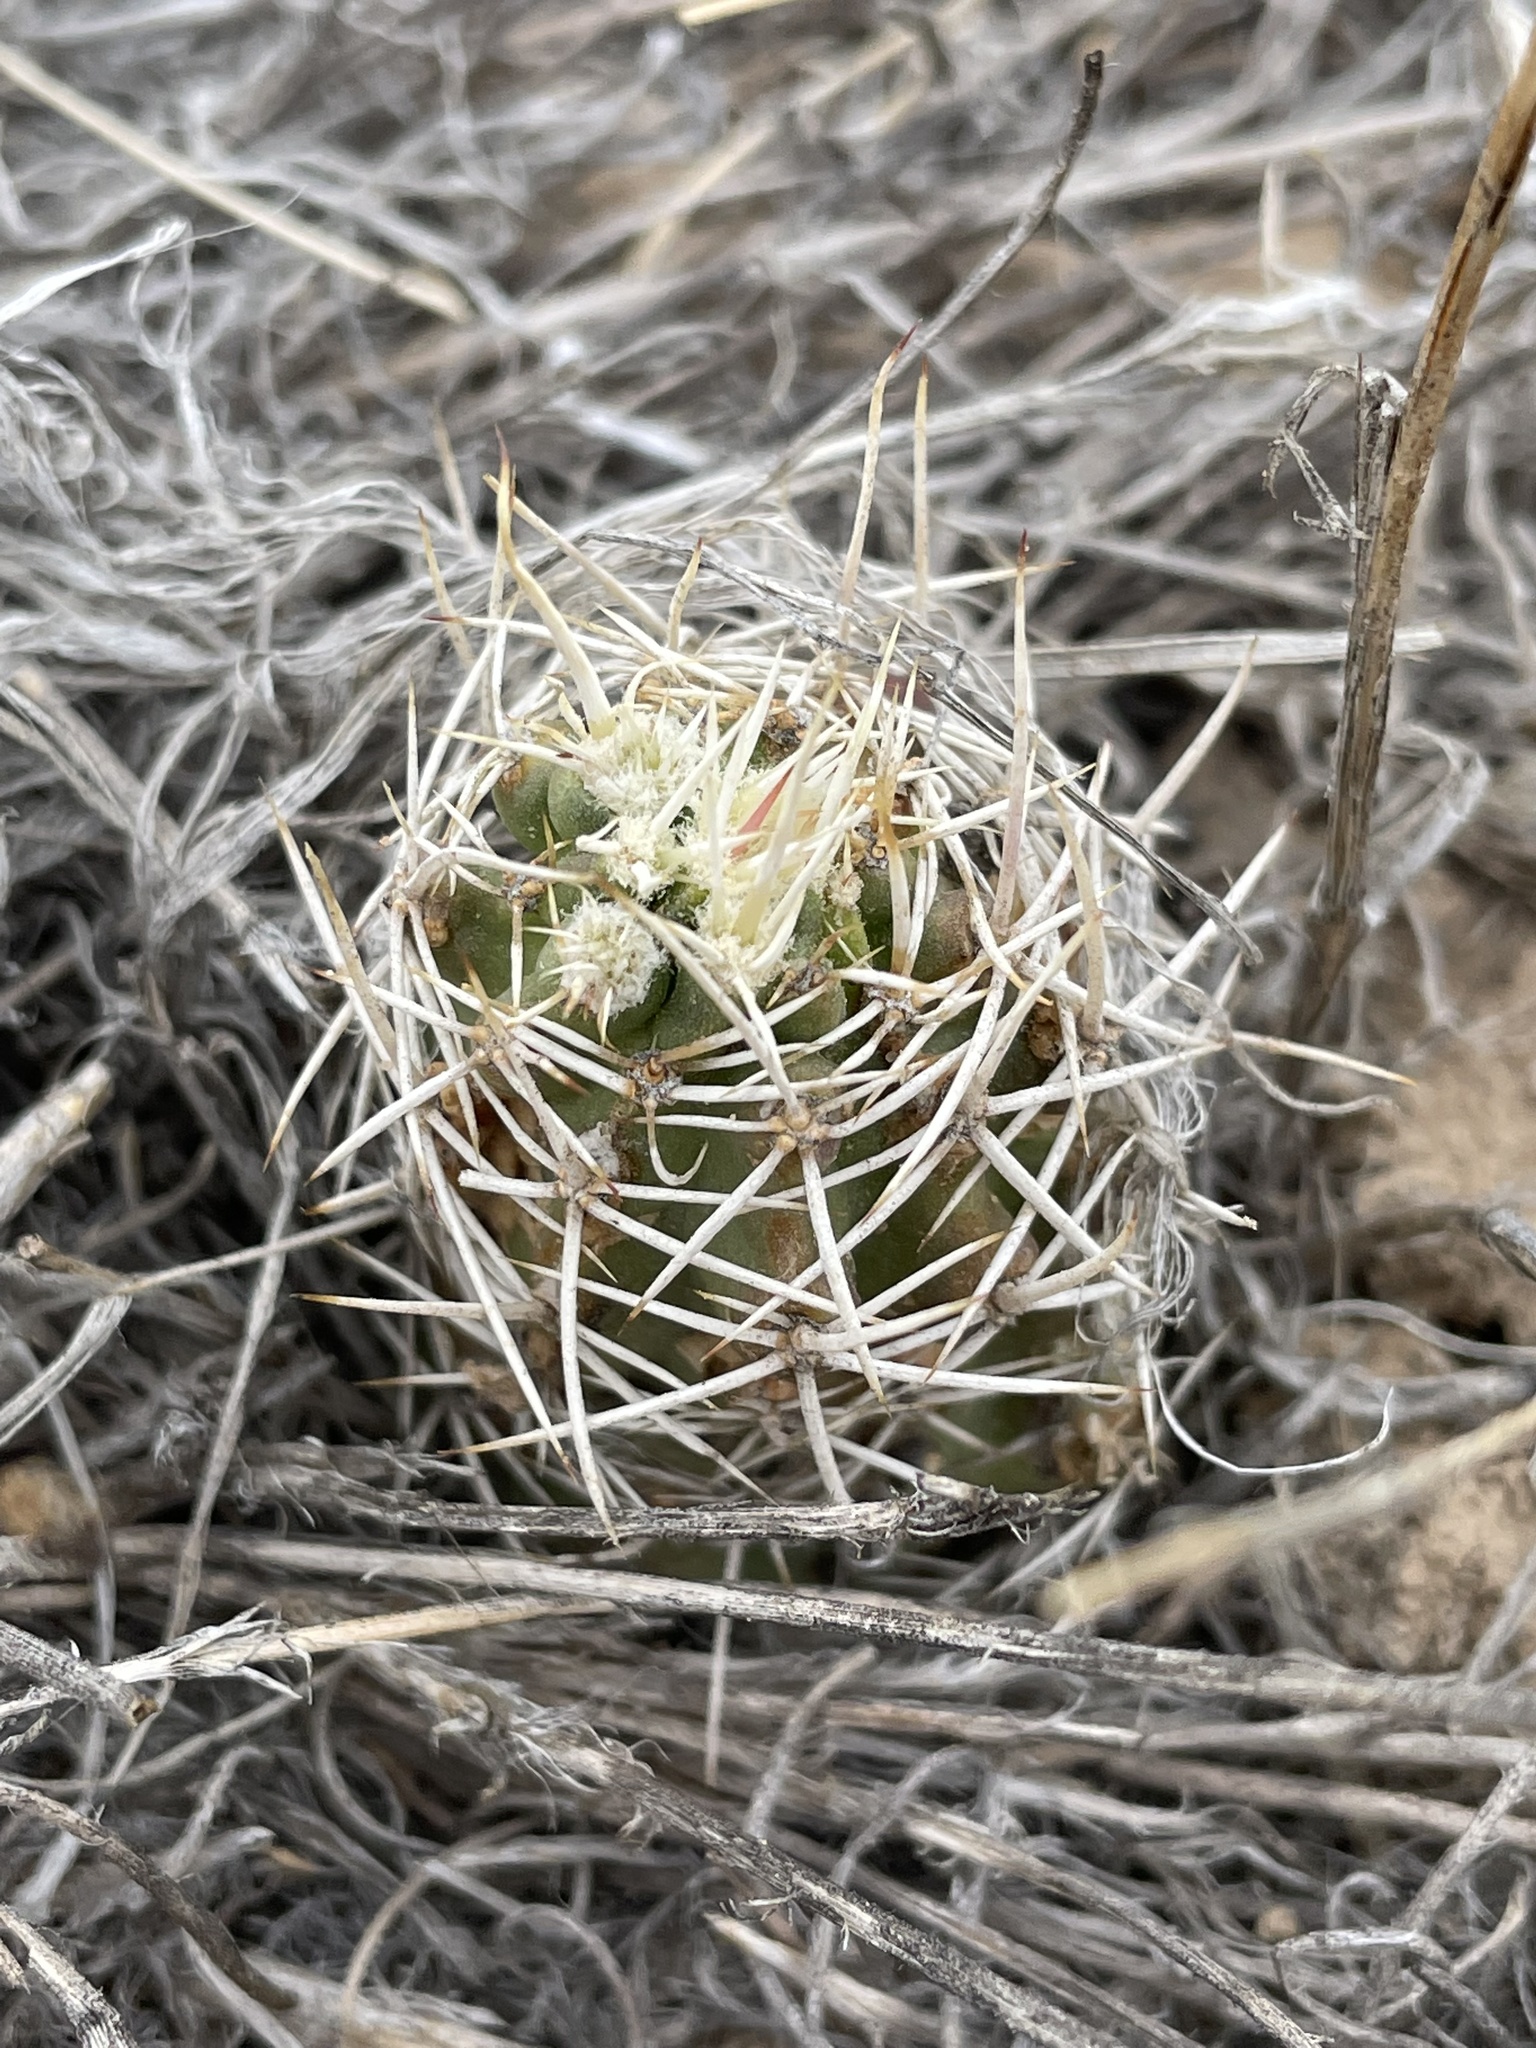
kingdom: Plantae
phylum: Tracheophyta
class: Magnoliopsida
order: Caryophyllales
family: Cactaceae
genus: Echinocereus
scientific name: Echinocereus fendleri
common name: Fendler's hedgehog cactus
